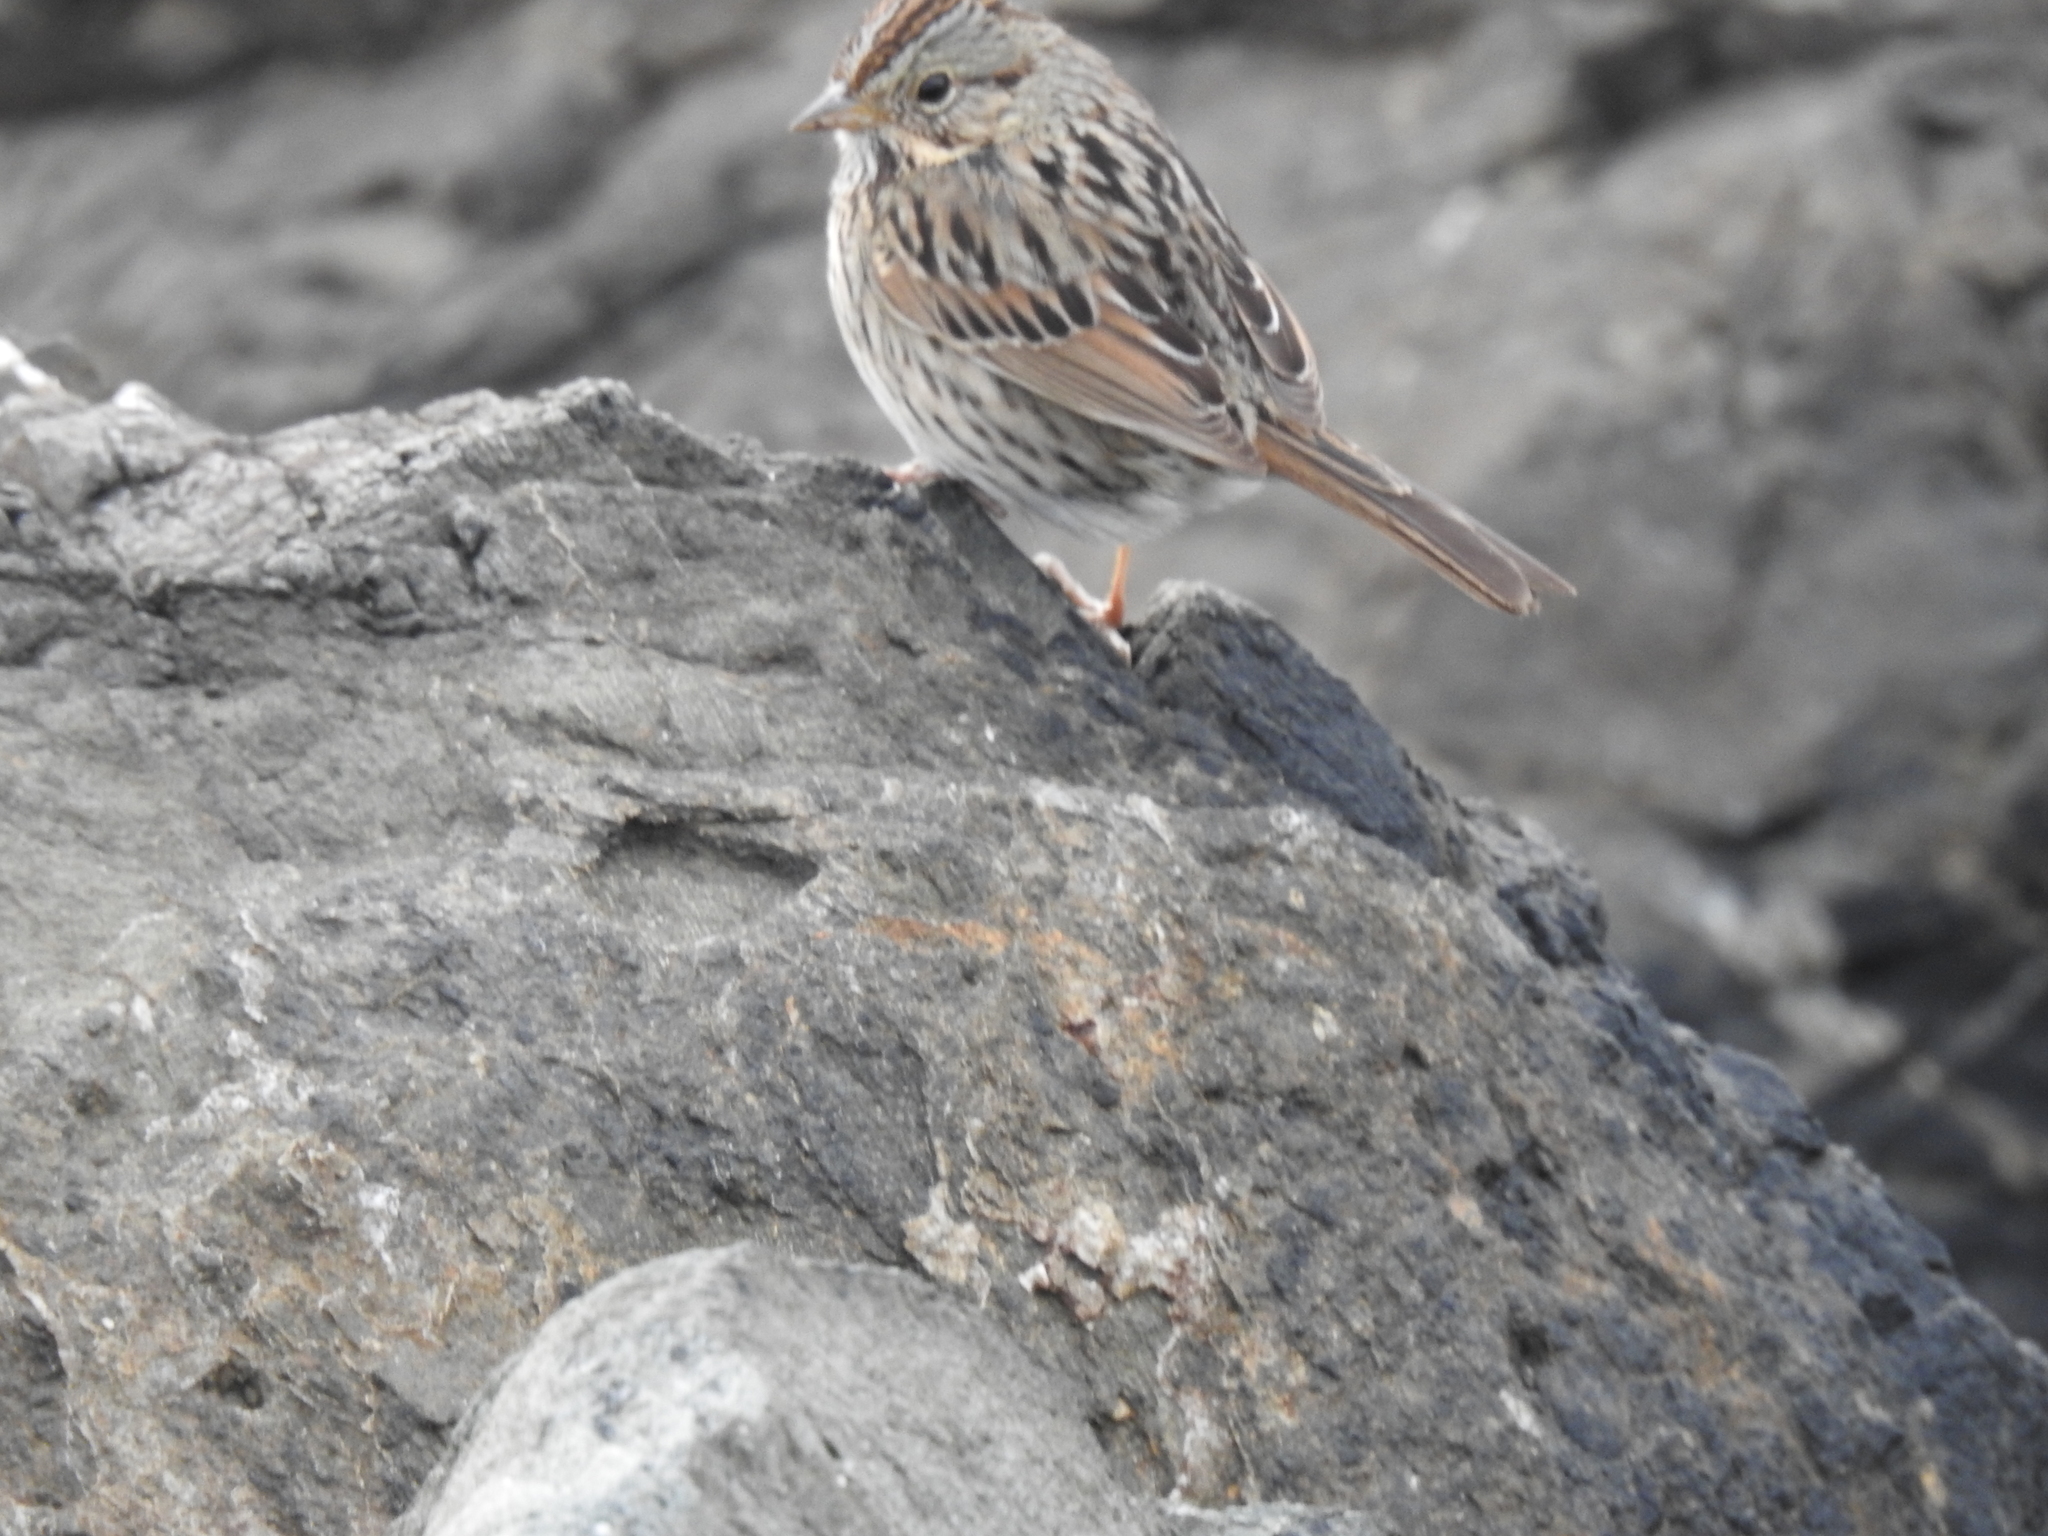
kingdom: Animalia
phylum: Chordata
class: Aves
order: Passeriformes
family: Passerellidae
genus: Melospiza
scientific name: Melospiza lincolnii
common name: Lincoln's sparrow
